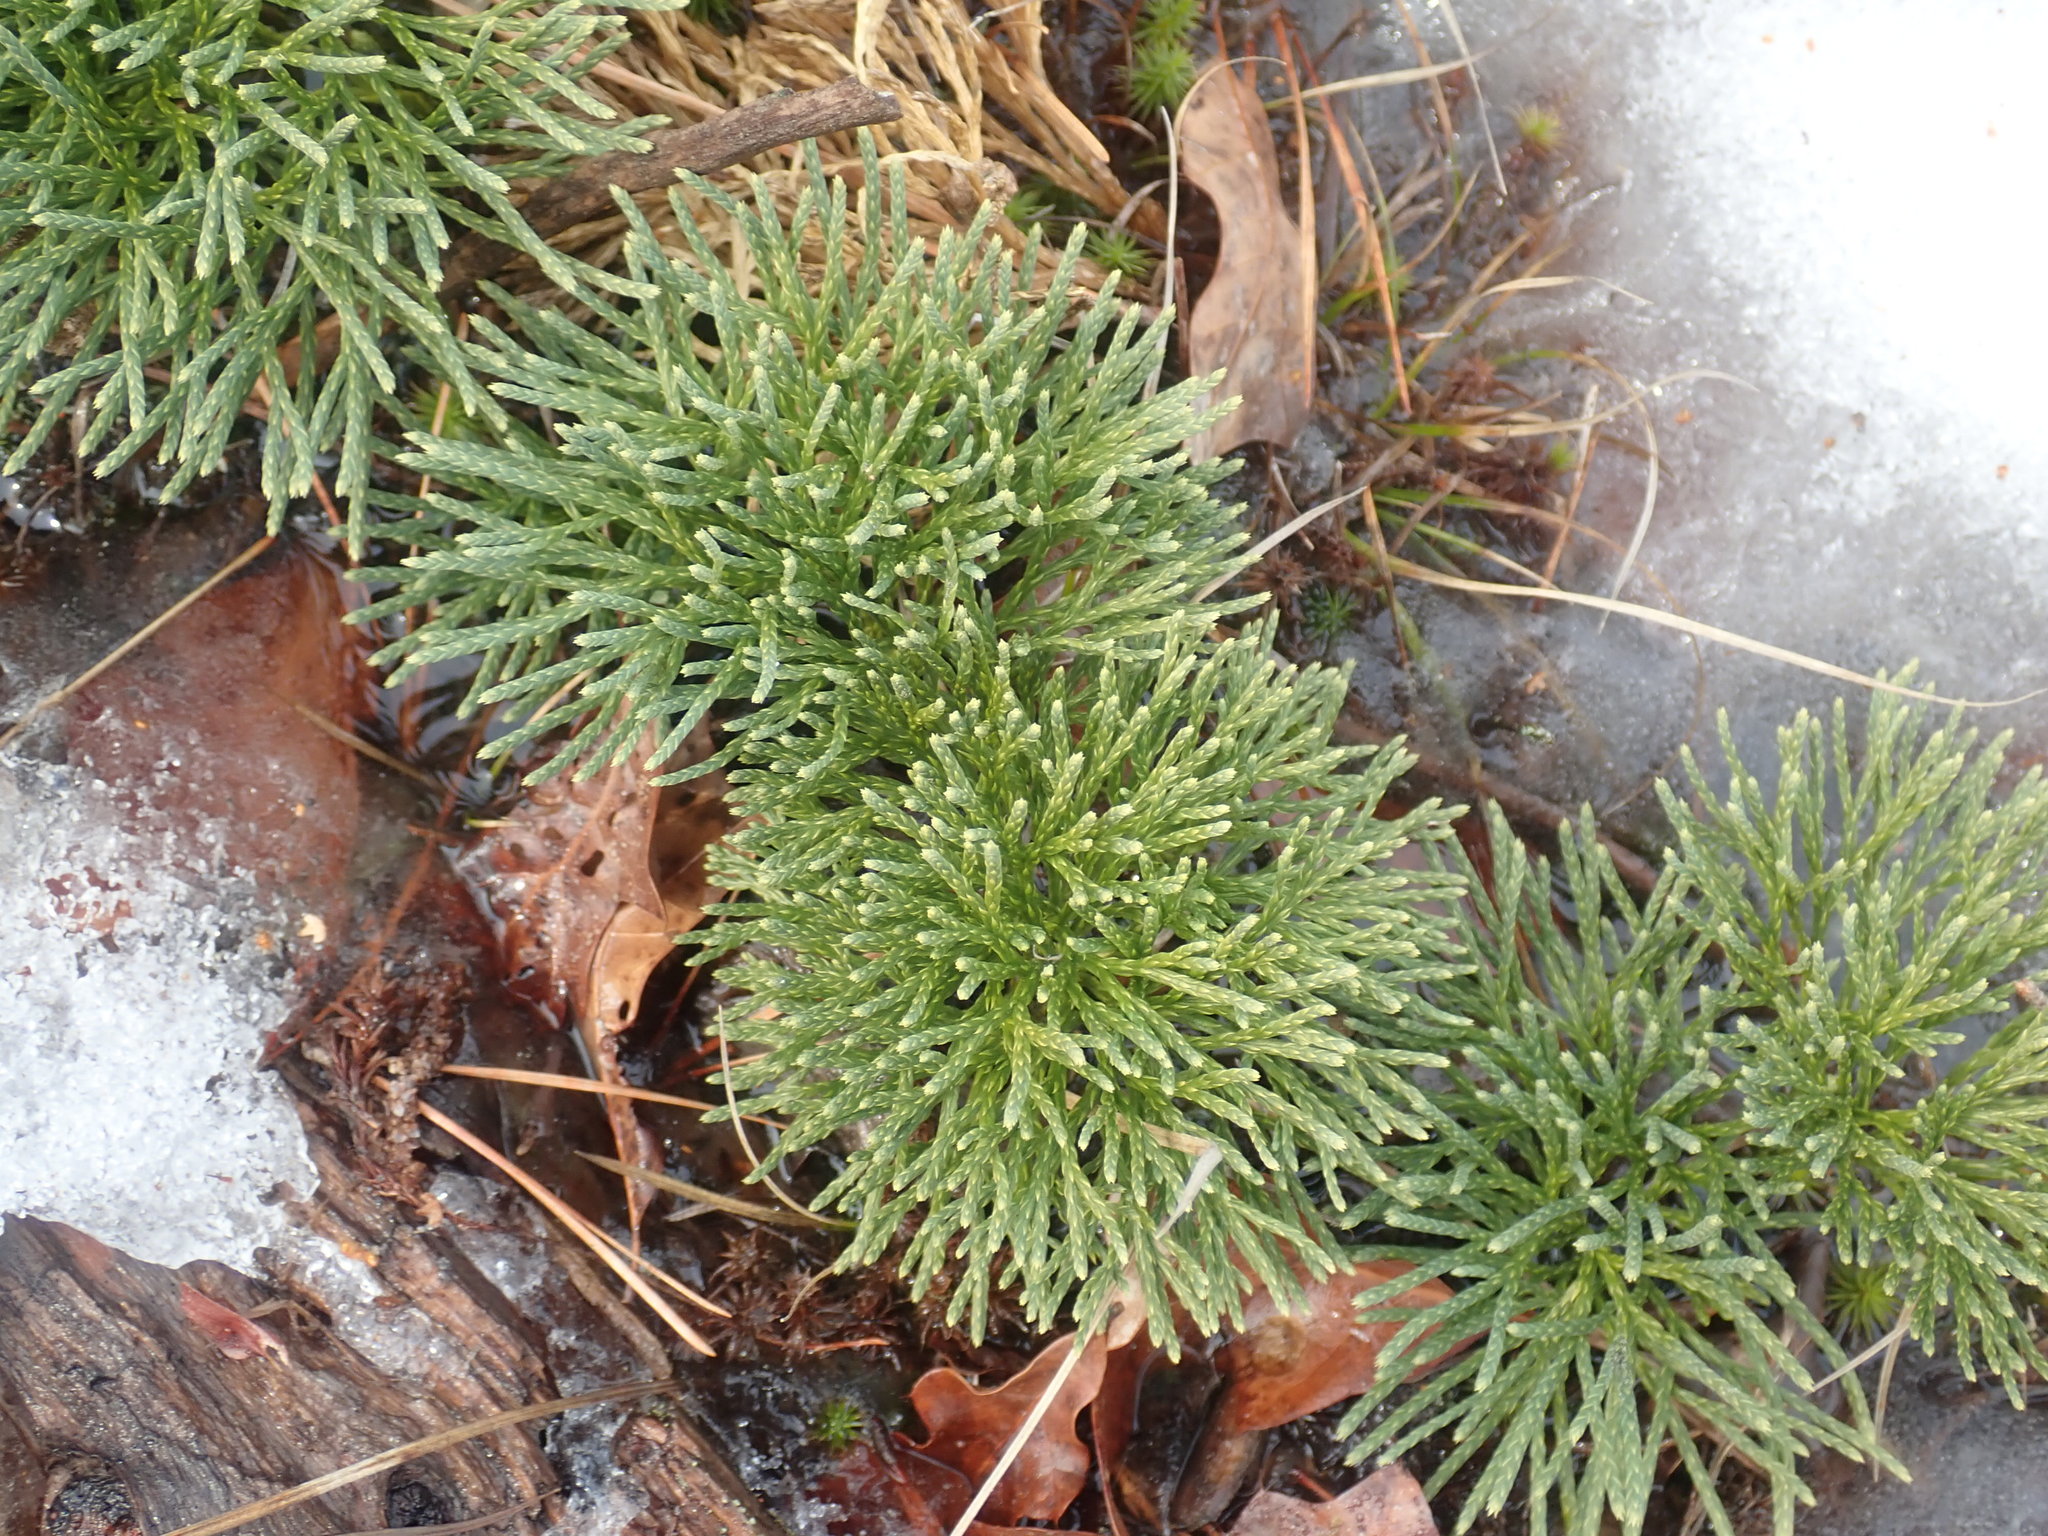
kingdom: Plantae
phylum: Tracheophyta
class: Lycopodiopsida
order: Lycopodiales
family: Lycopodiaceae
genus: Diphasiastrum
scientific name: Diphasiastrum tristachyum
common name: Blue ground-cedar
